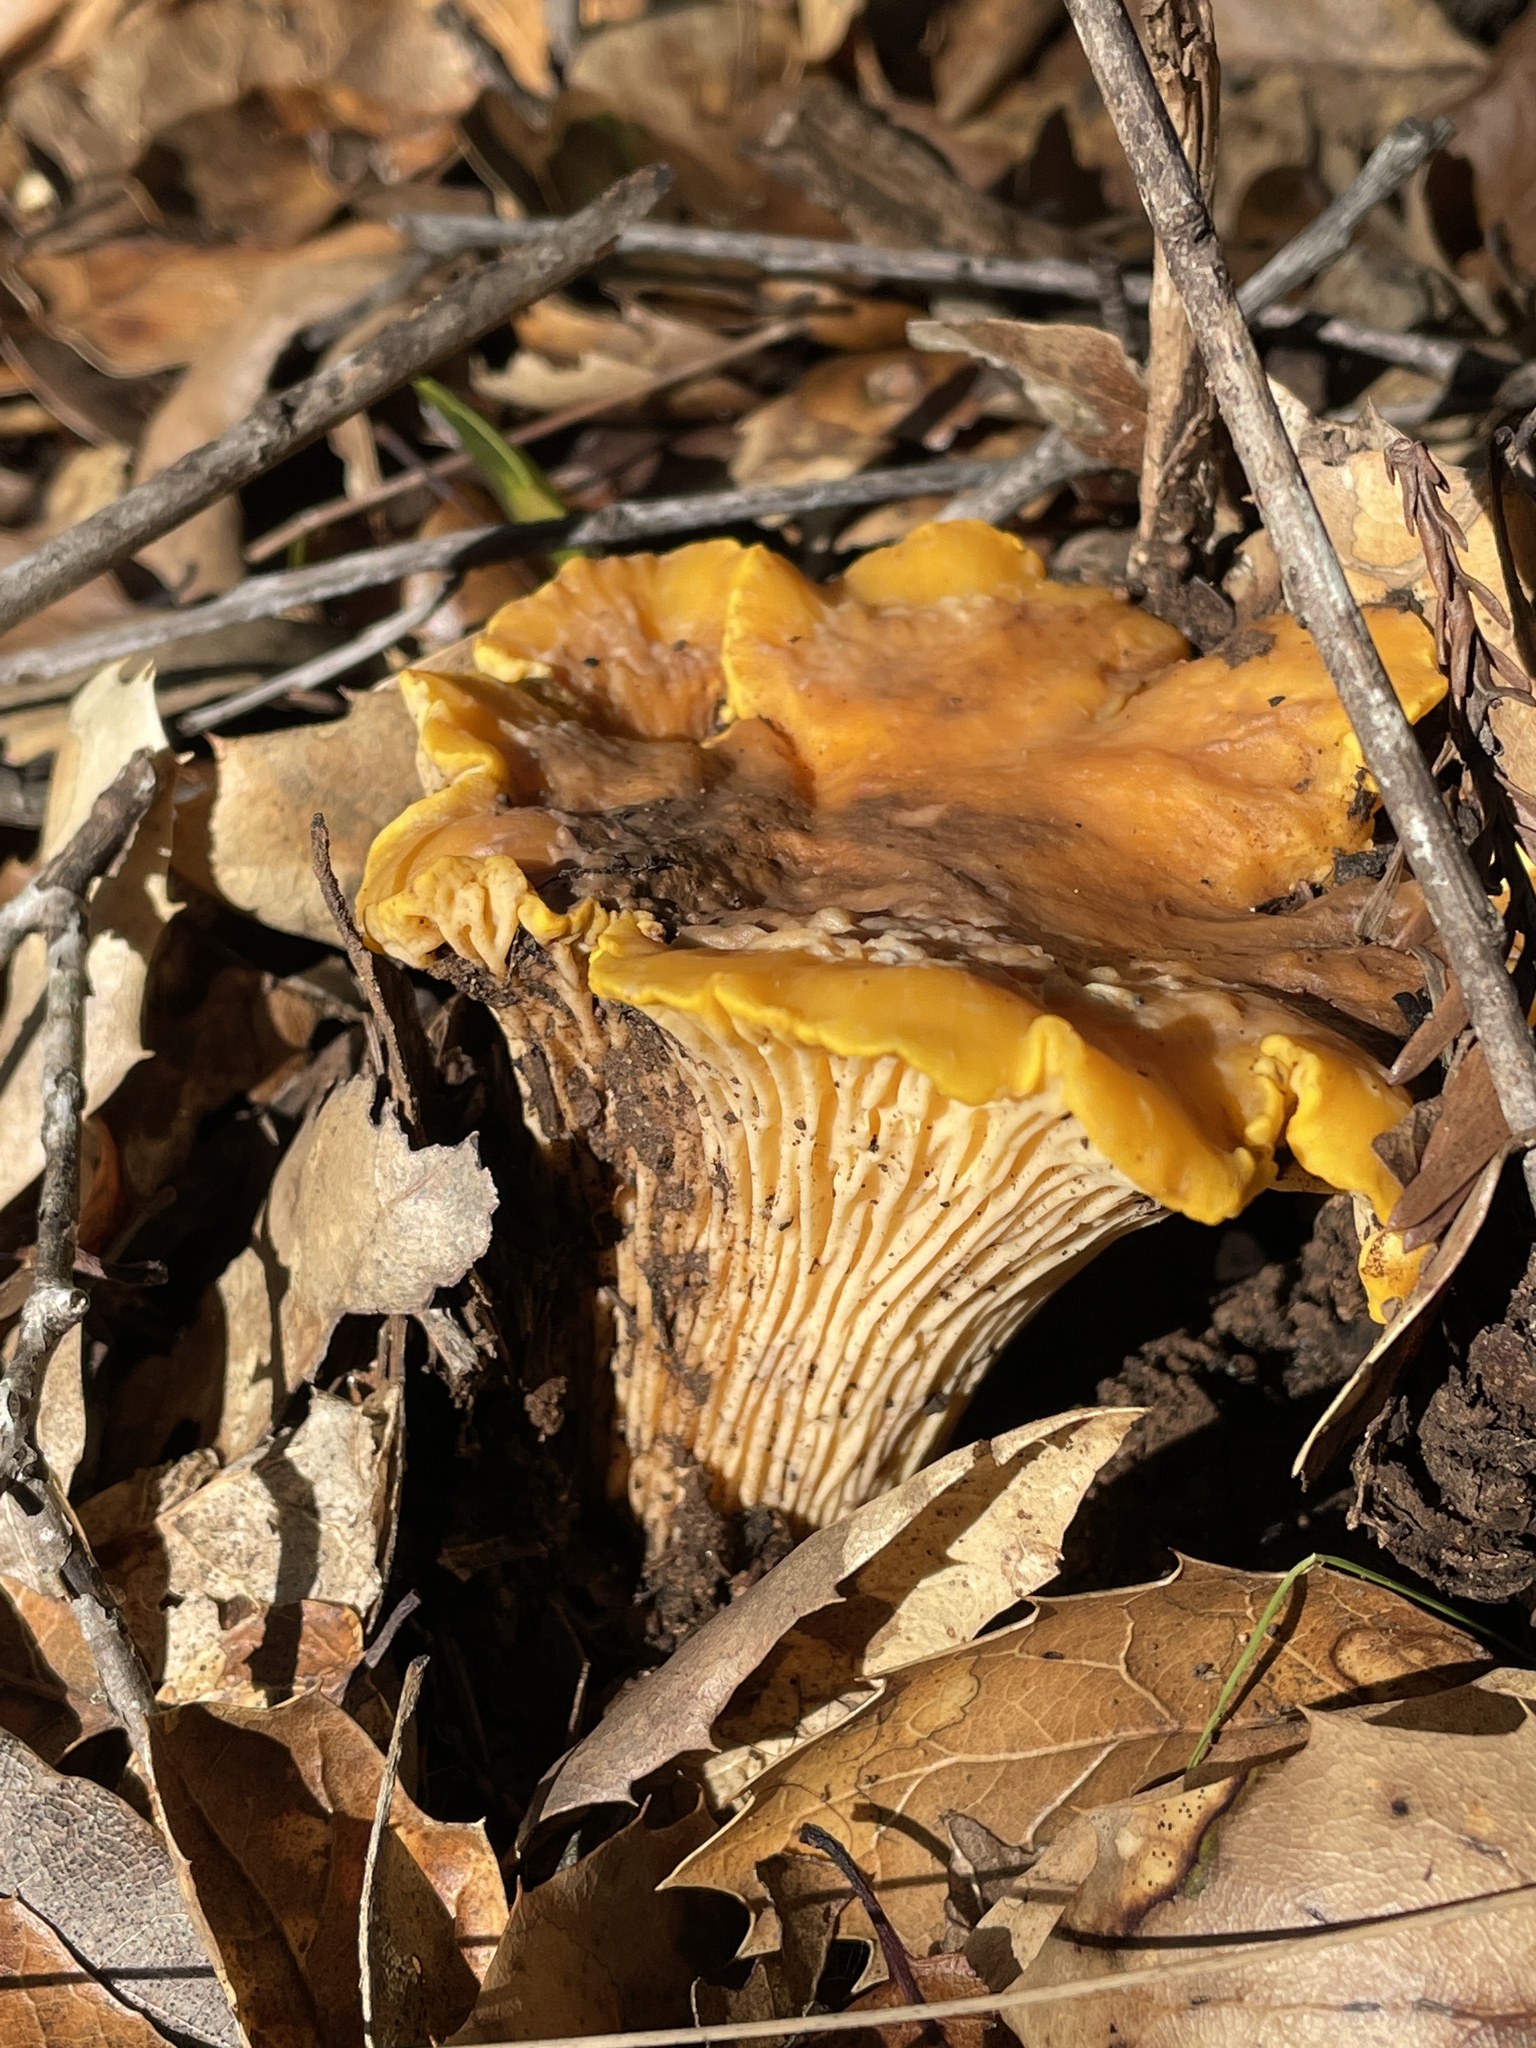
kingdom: Fungi
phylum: Basidiomycota
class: Agaricomycetes
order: Cantharellales
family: Hydnaceae
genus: Cantharellus
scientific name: Cantharellus californicus
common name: California golden chanterelle
